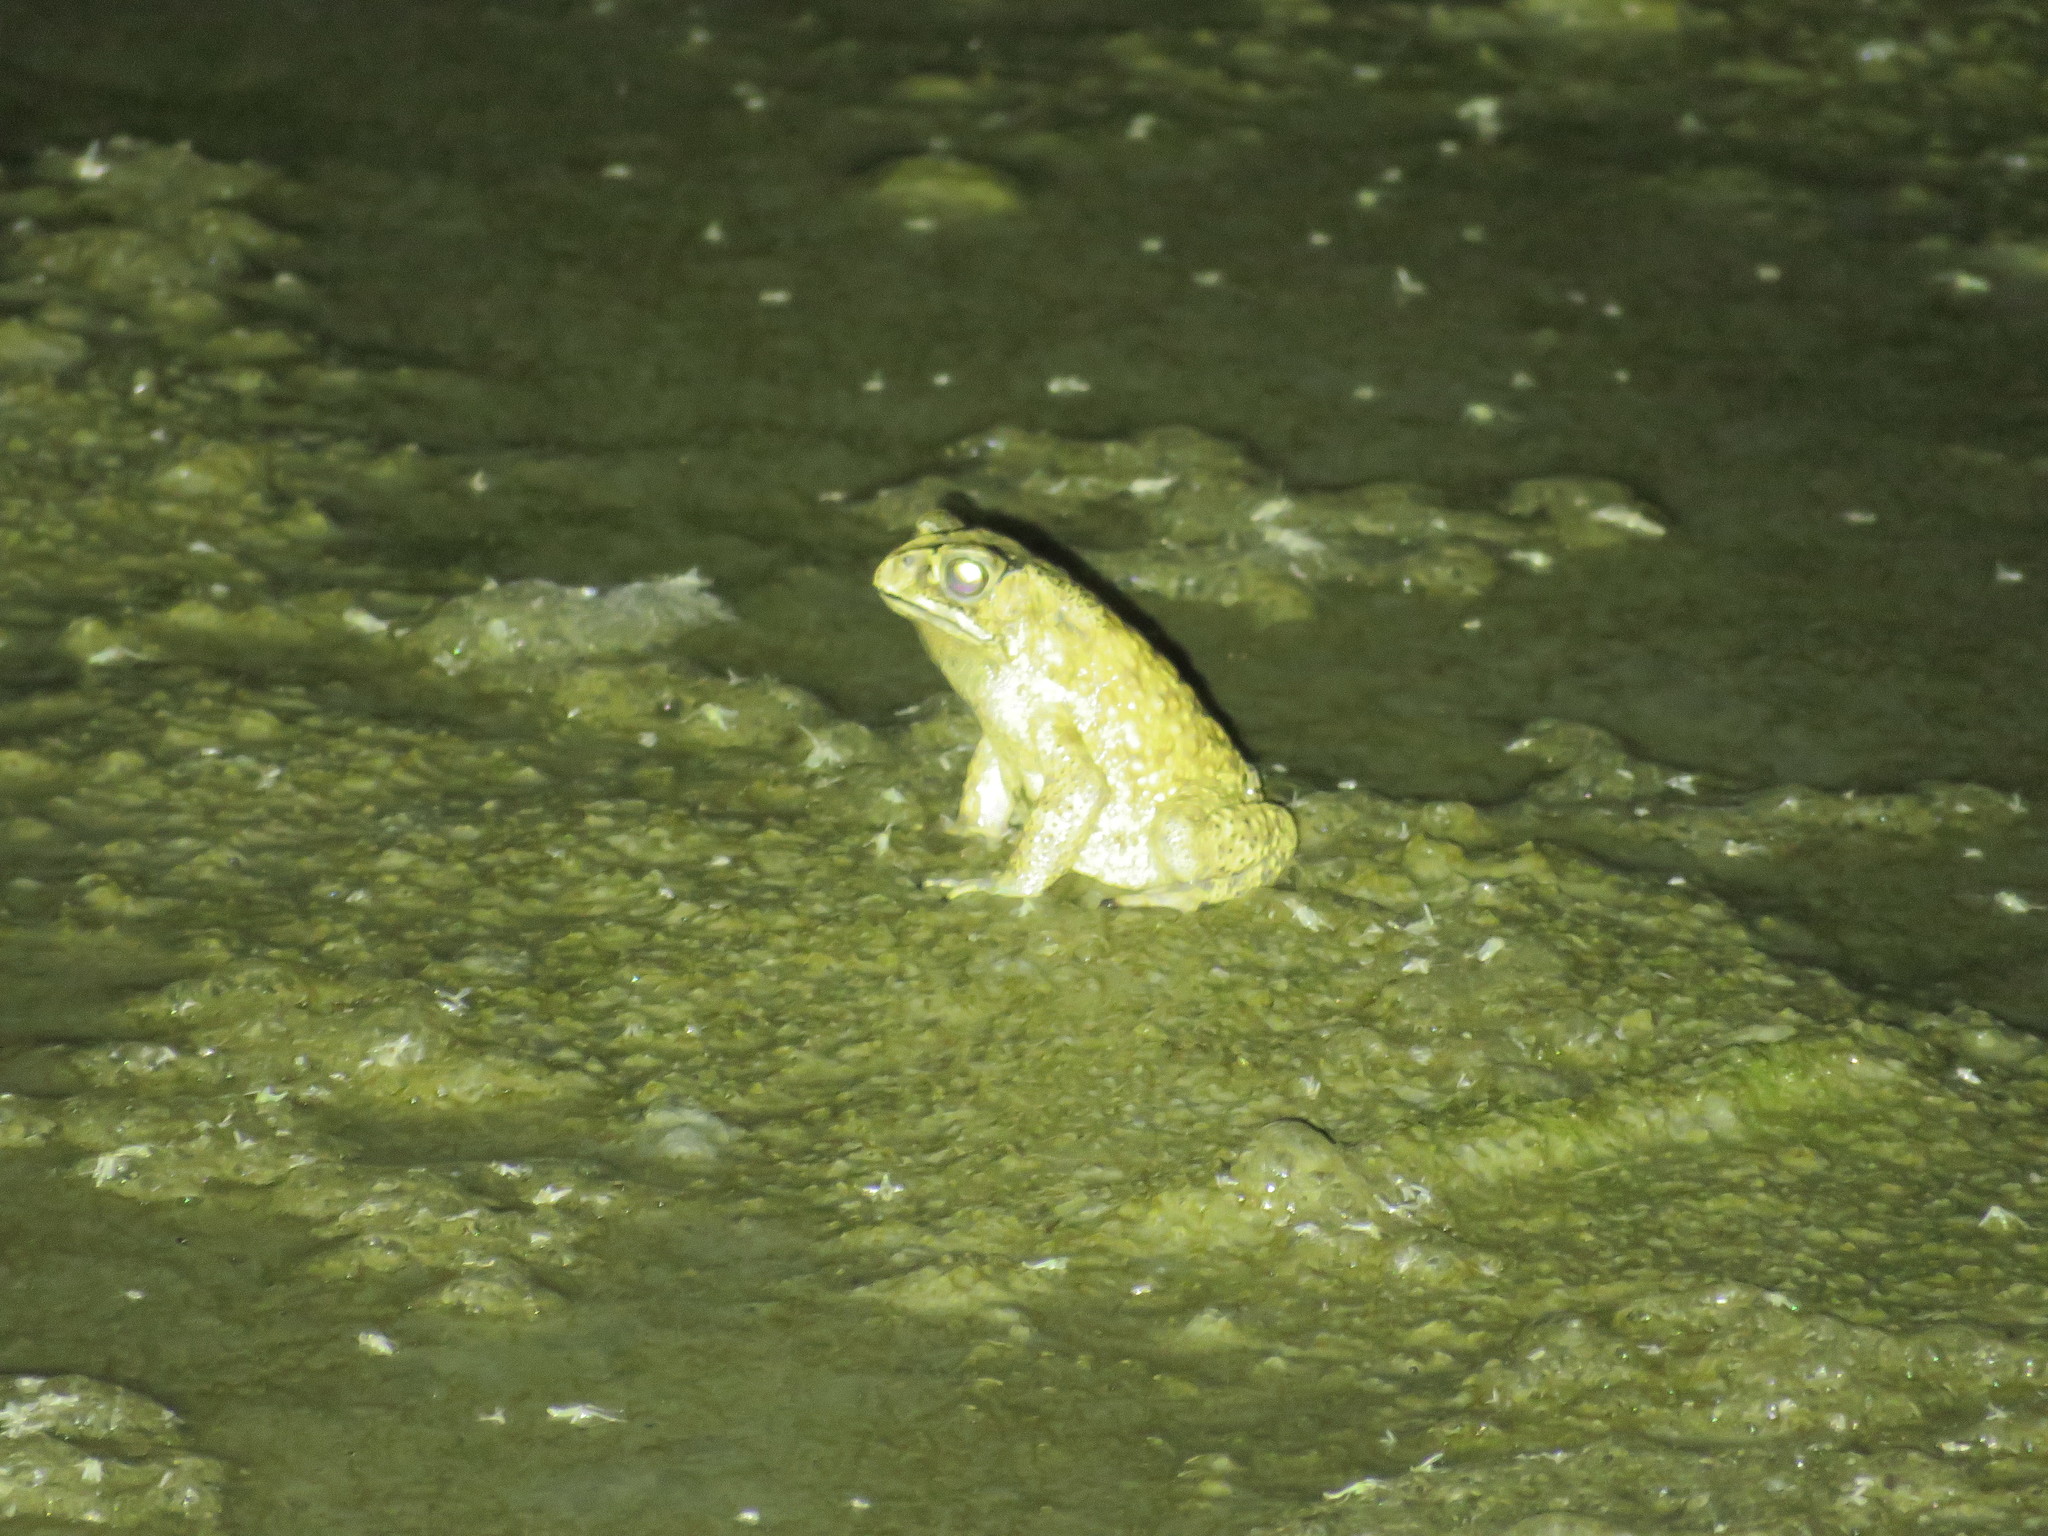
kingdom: Animalia
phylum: Chordata
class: Amphibia
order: Anura
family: Bufonidae
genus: Duttaphrynus
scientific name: Duttaphrynus melanostictus
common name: Common sunda toad
